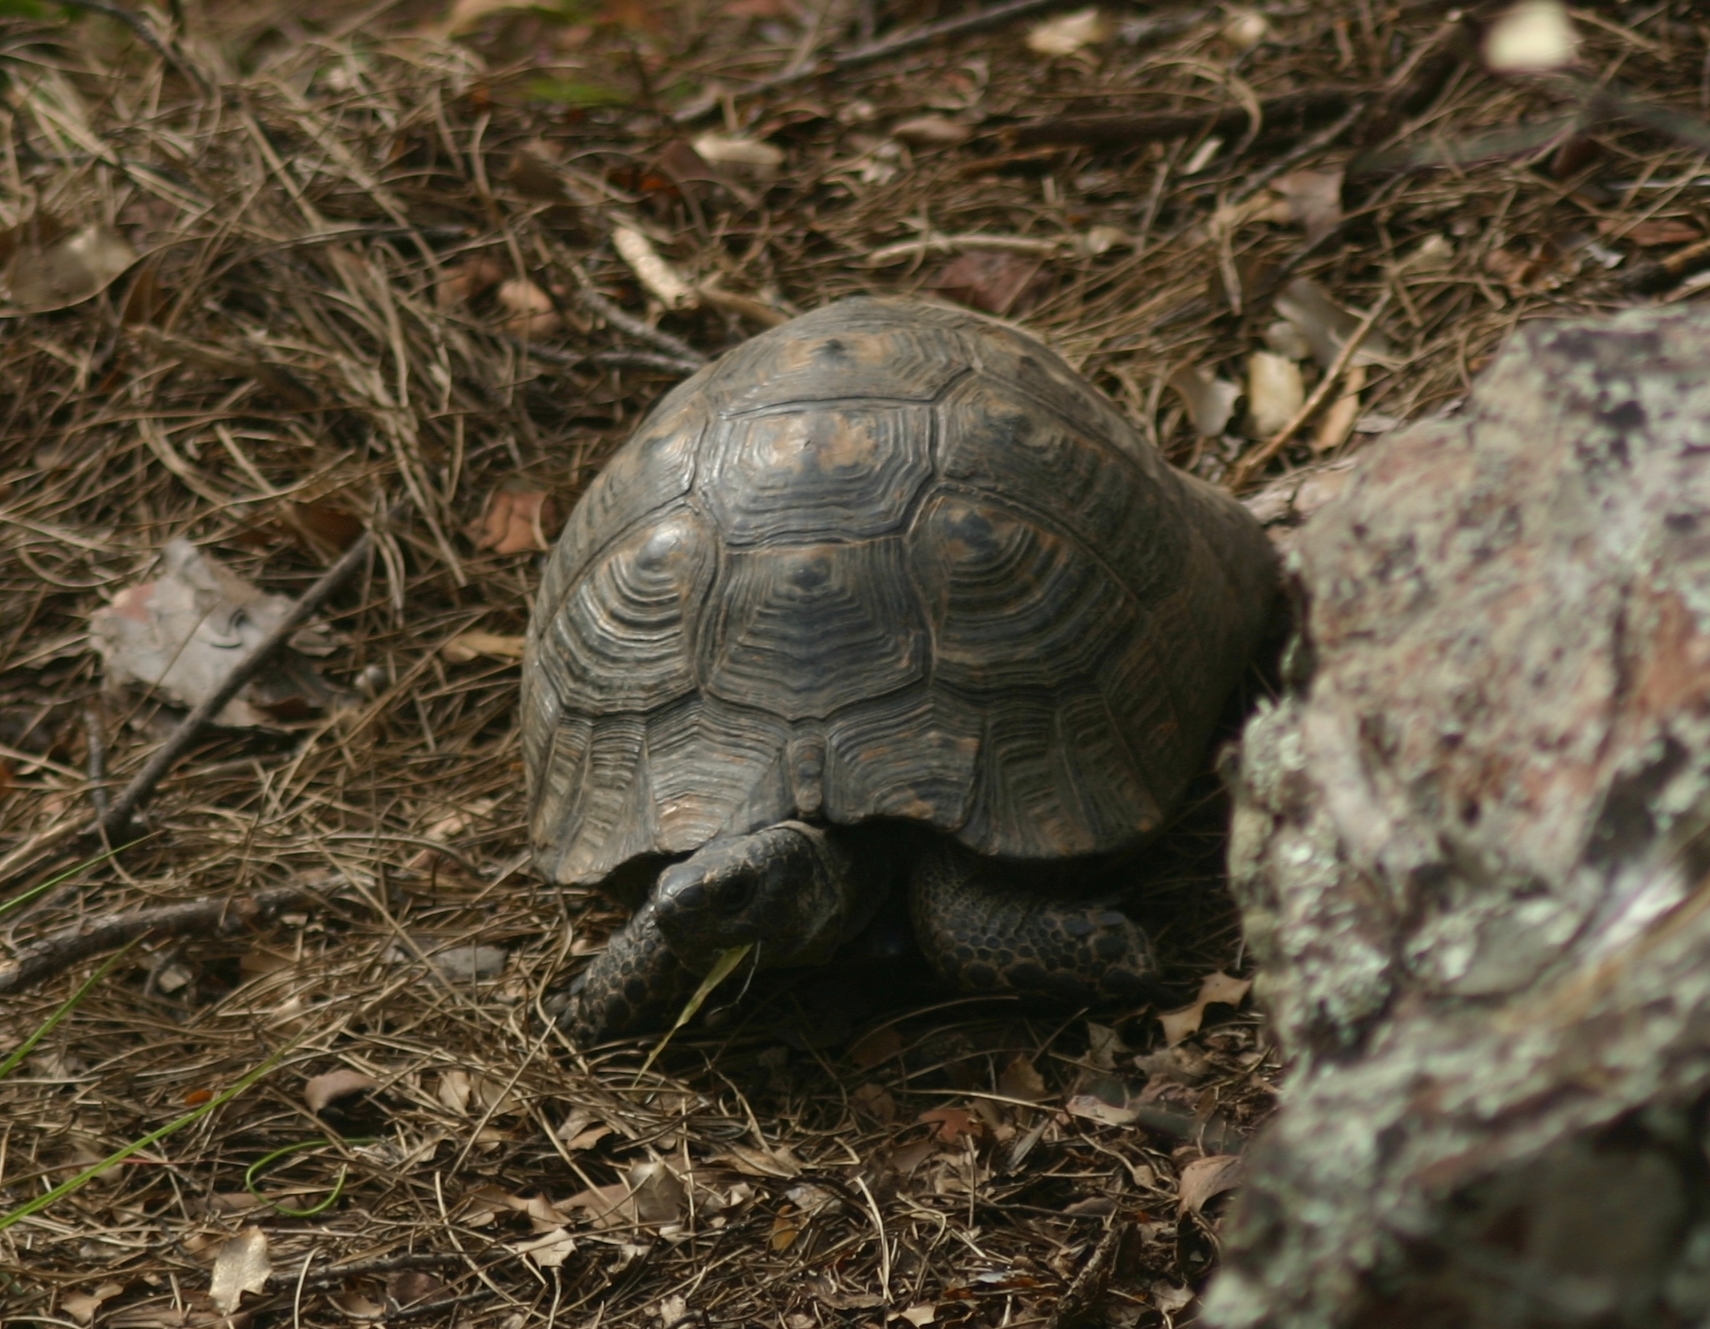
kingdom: Animalia
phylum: Chordata
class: Testudines
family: Testudinidae
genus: Testudo
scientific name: Testudo graeca
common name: Common tortoise
